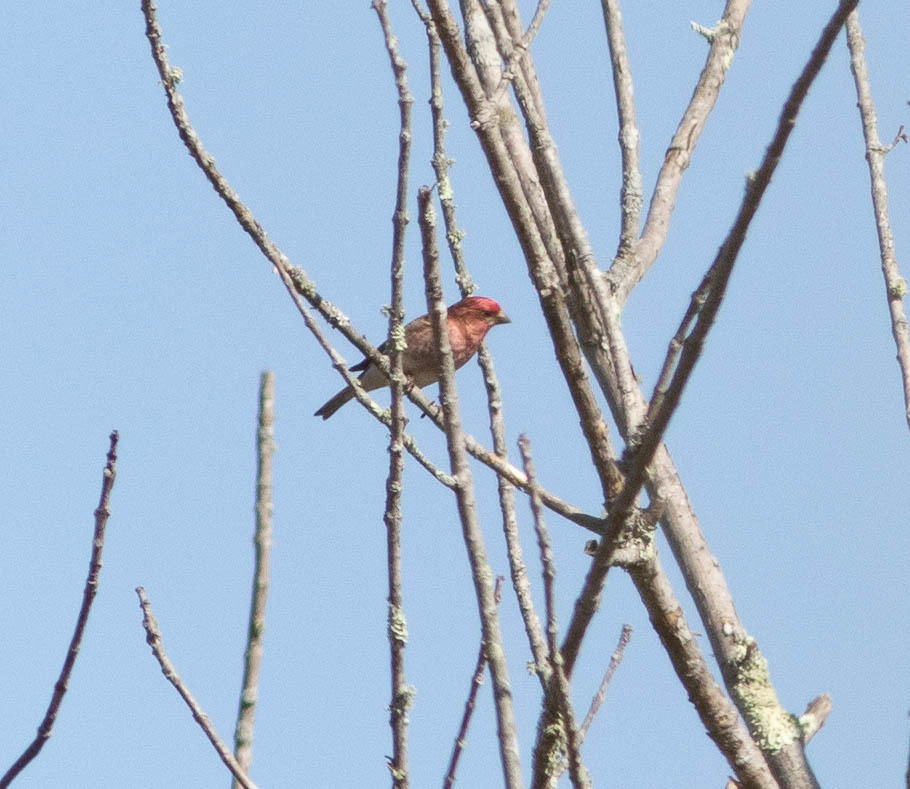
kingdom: Animalia
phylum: Chordata
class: Aves
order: Passeriformes
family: Fringillidae
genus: Haemorhous
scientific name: Haemorhous purpureus
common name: Purple finch
